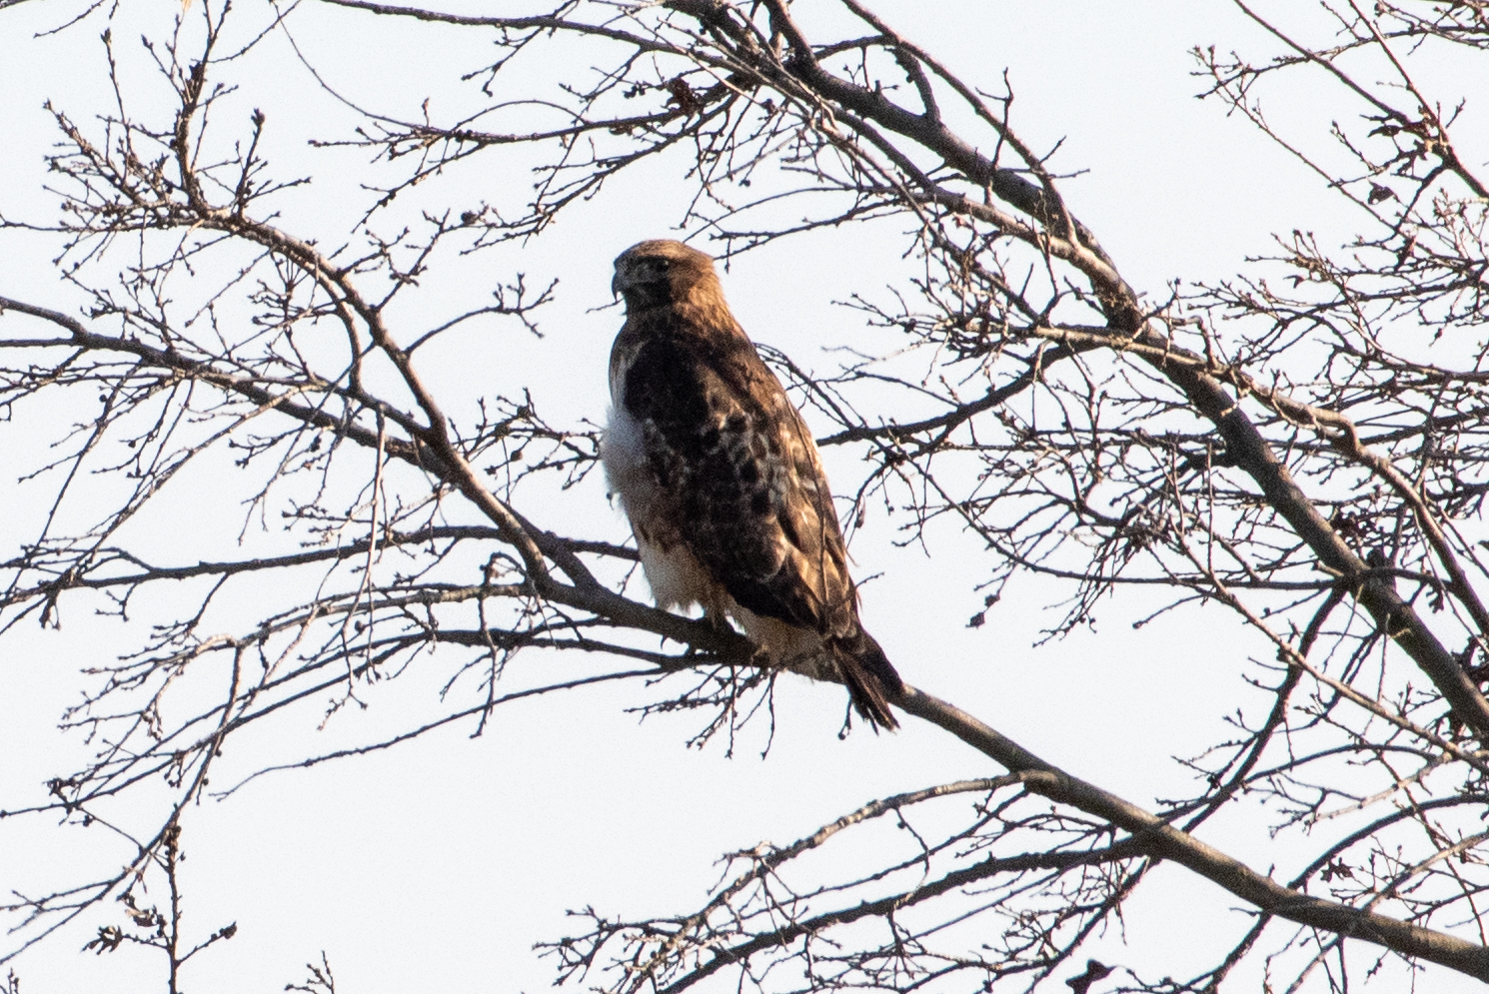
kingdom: Animalia
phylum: Chordata
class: Aves
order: Accipitriformes
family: Accipitridae
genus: Buteo
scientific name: Buteo jamaicensis
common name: Red-tailed hawk
